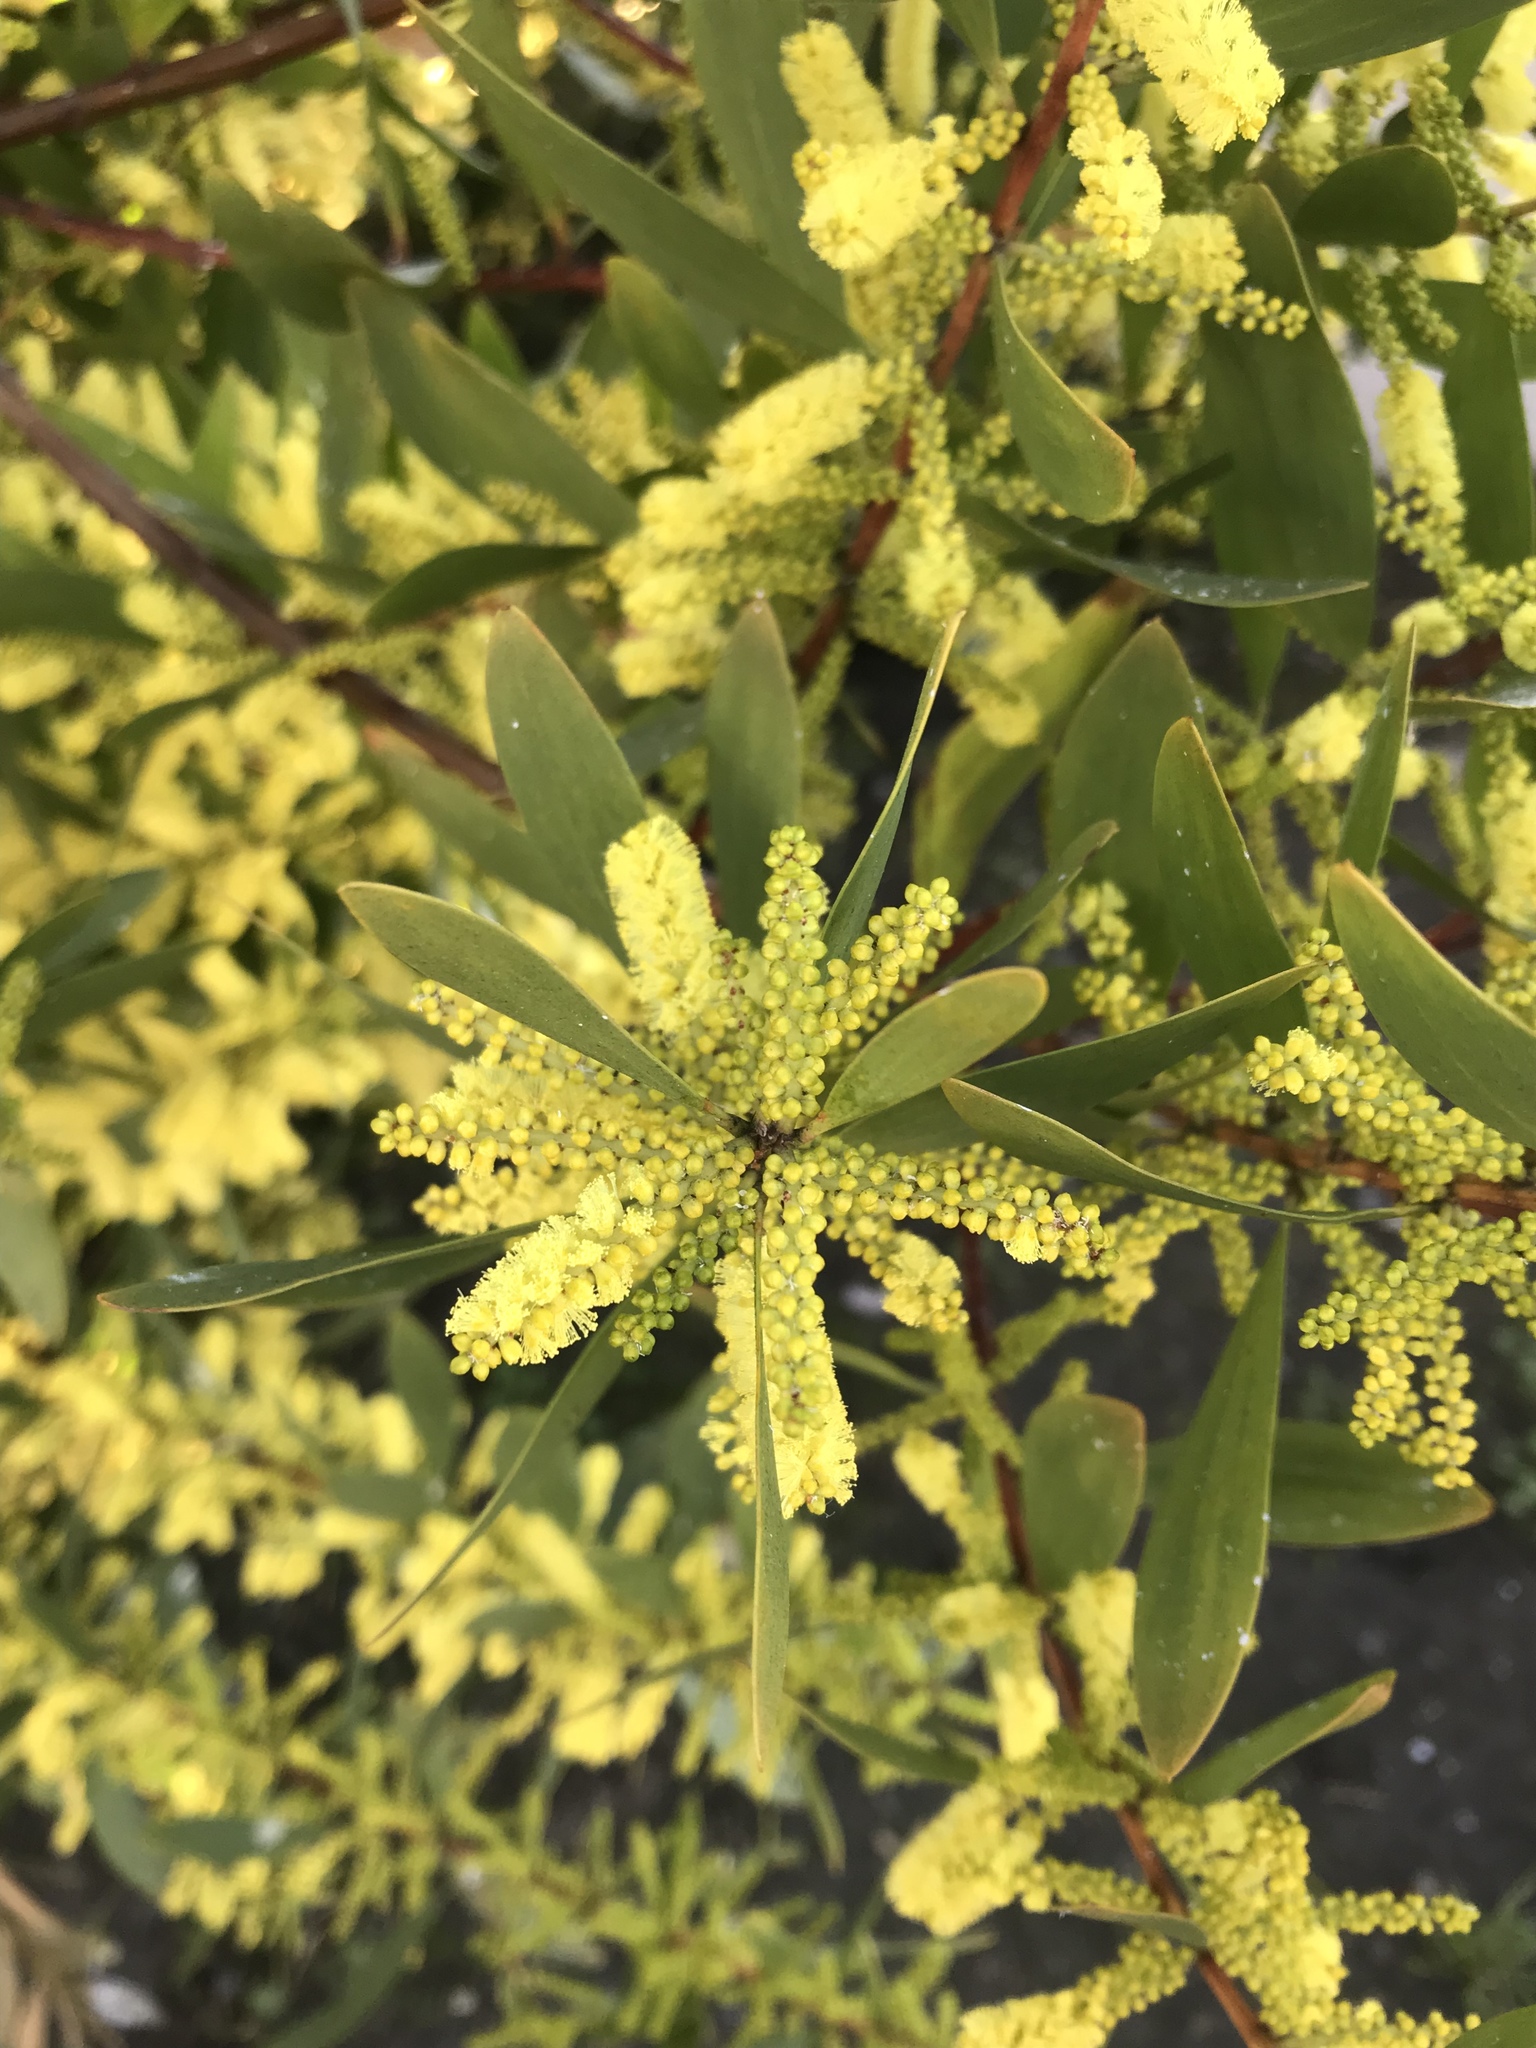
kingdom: Plantae
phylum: Tracheophyta
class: Magnoliopsida
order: Fabales
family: Fabaceae
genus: Acacia
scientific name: Acacia longifolia
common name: Sydney golden wattle
